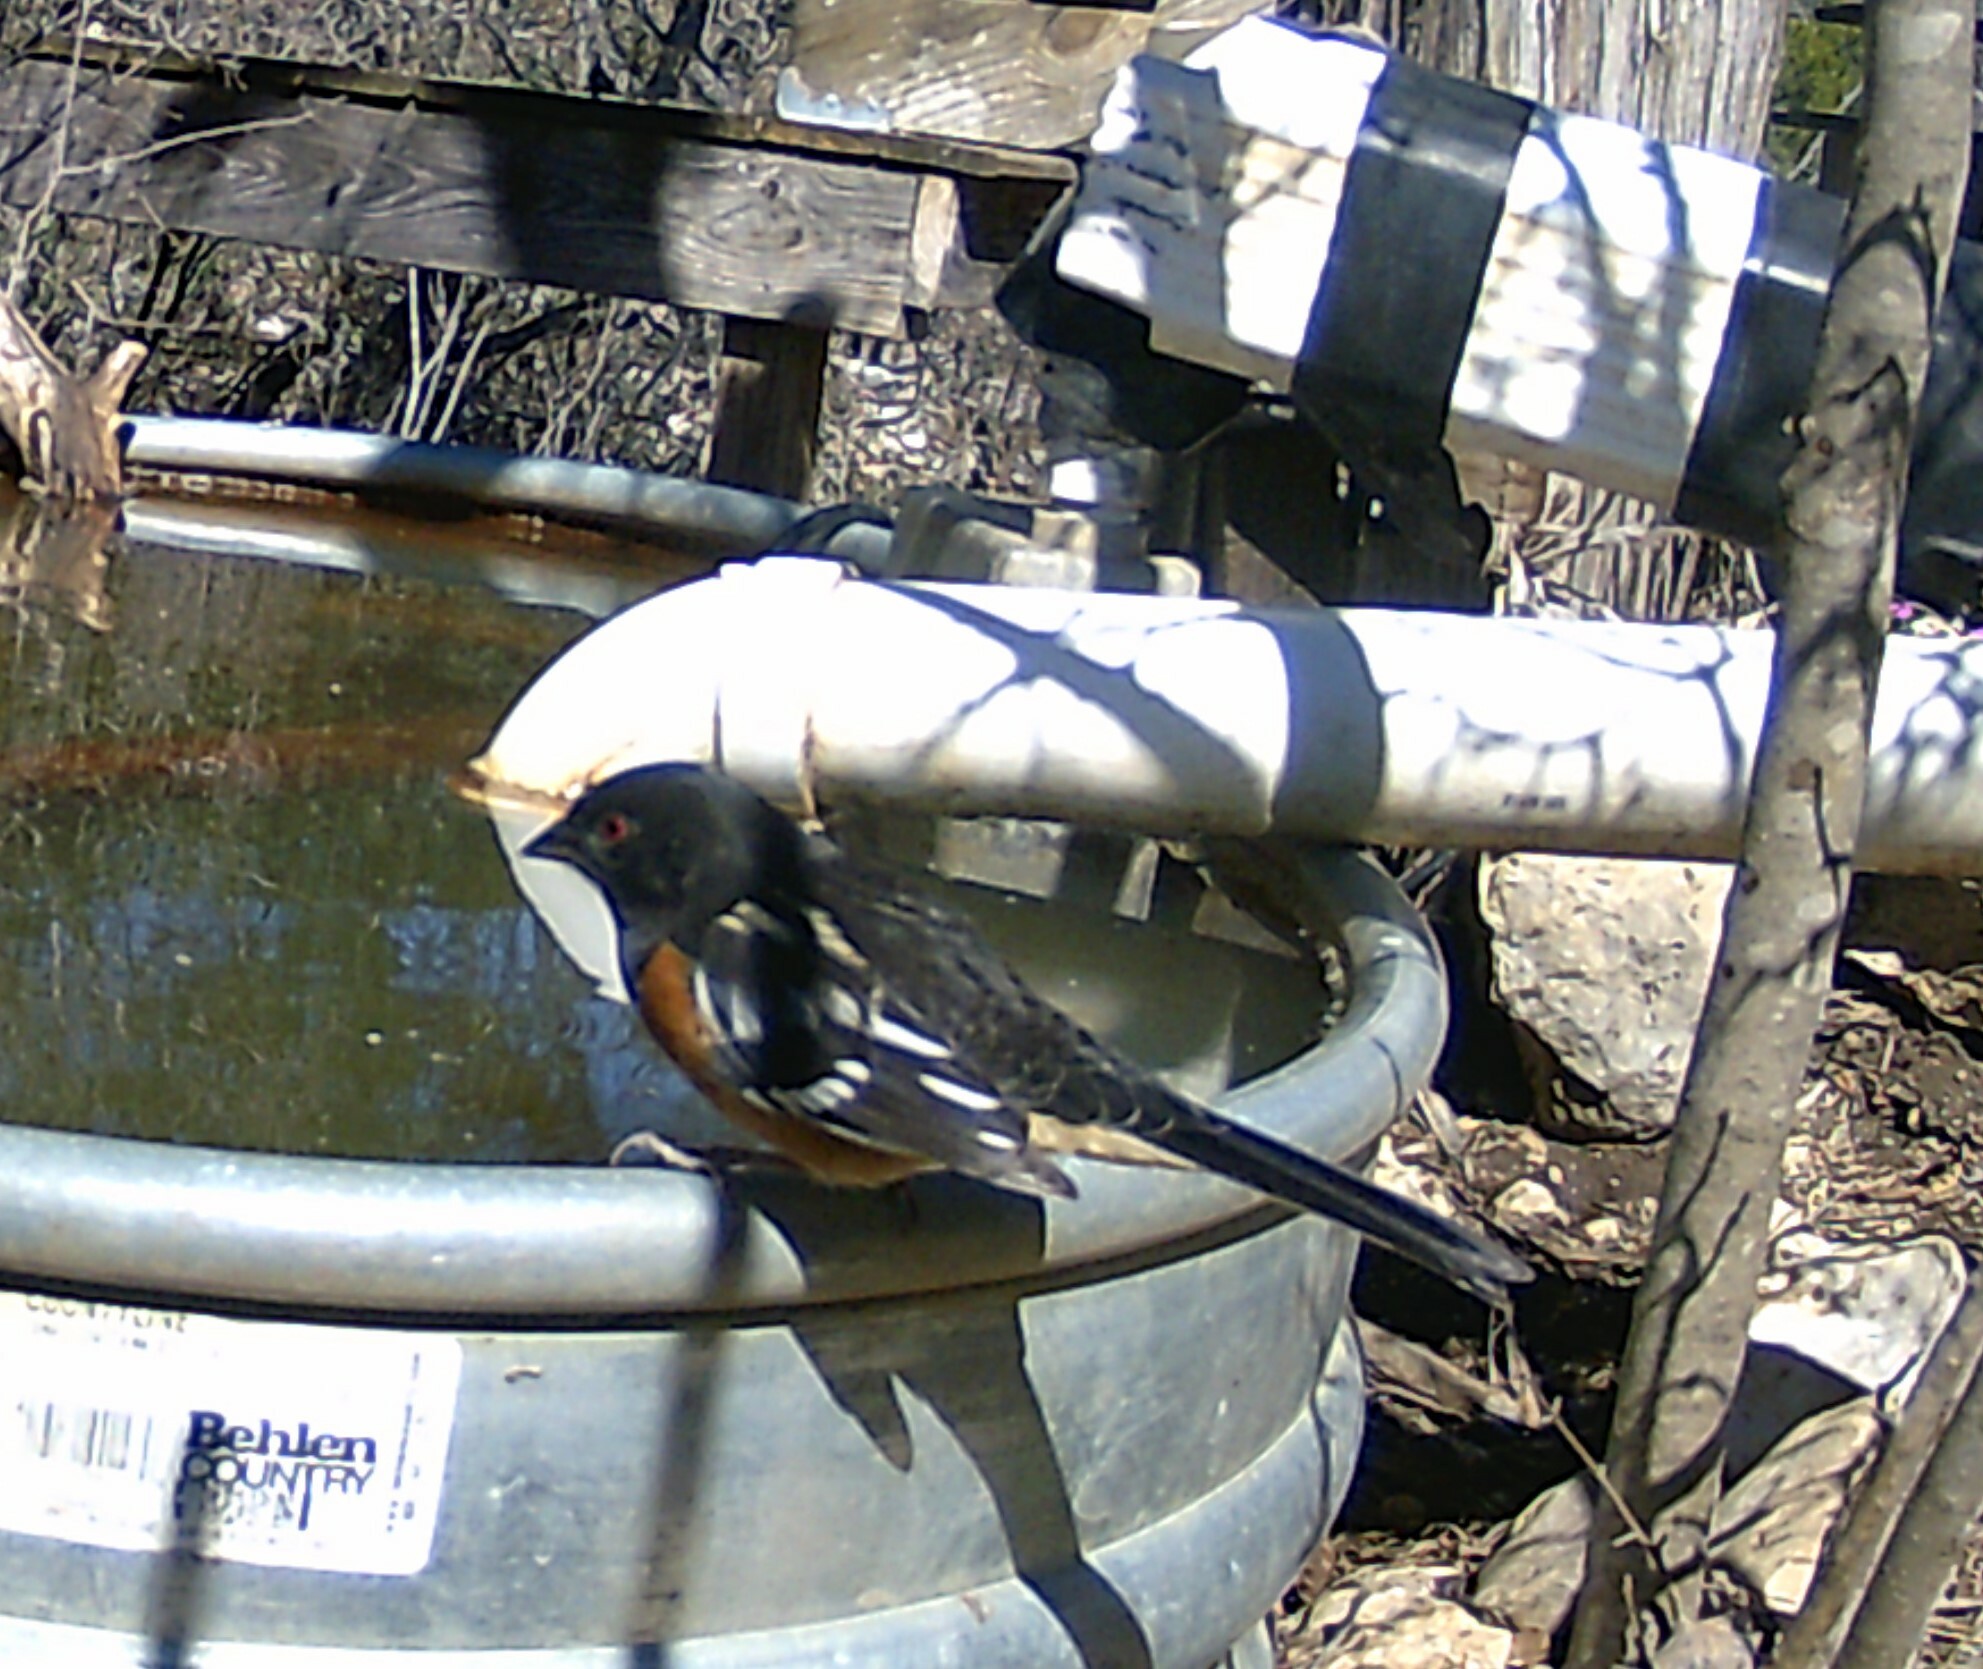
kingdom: Animalia
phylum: Chordata
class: Aves
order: Passeriformes
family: Passerellidae
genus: Pipilo
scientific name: Pipilo maculatus
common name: Spotted towhee
